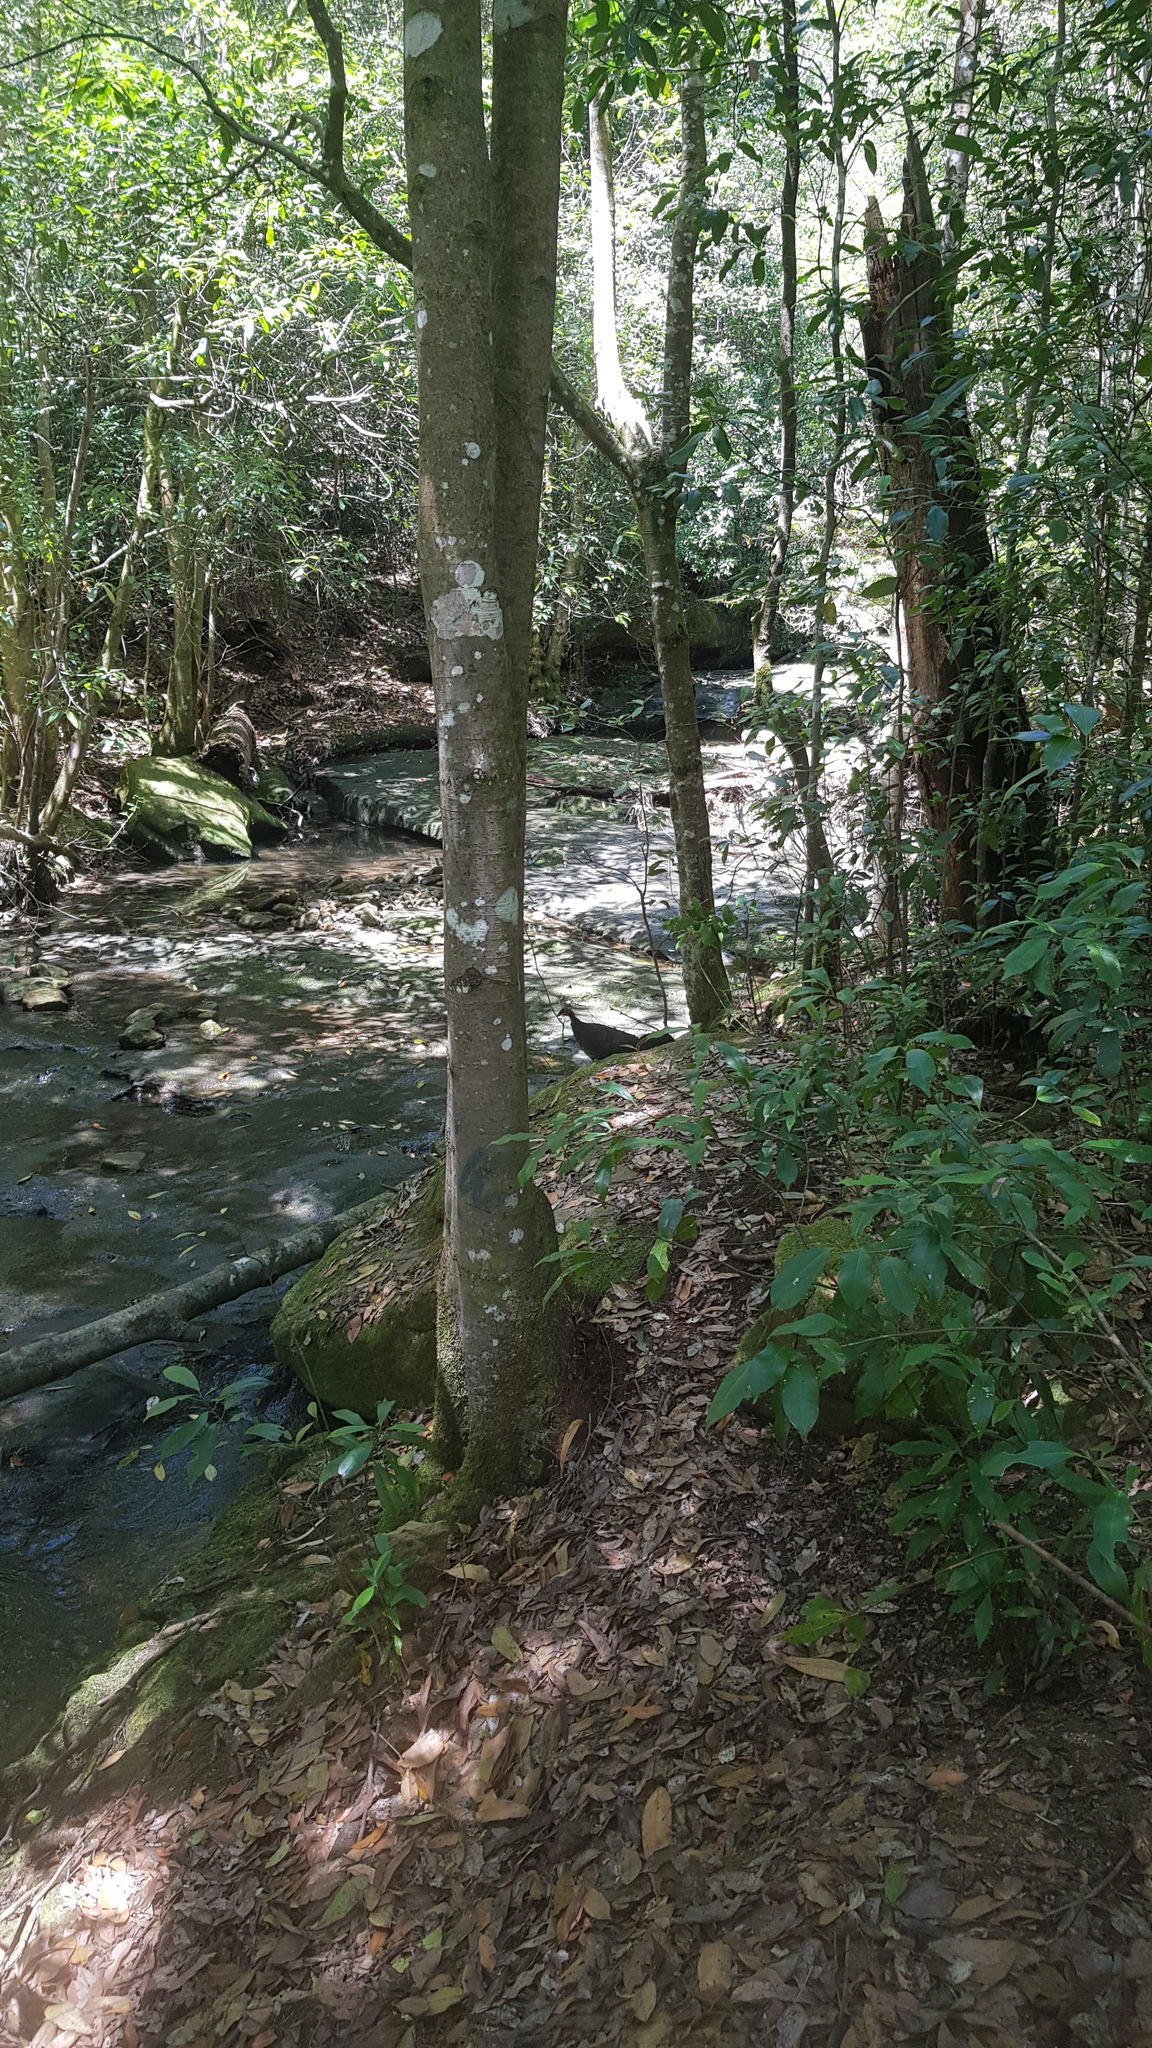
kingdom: Animalia
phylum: Chordata
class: Aves
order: Galliformes
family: Megapodiidae
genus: Alectura
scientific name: Alectura lathami
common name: Australian brushturkey
